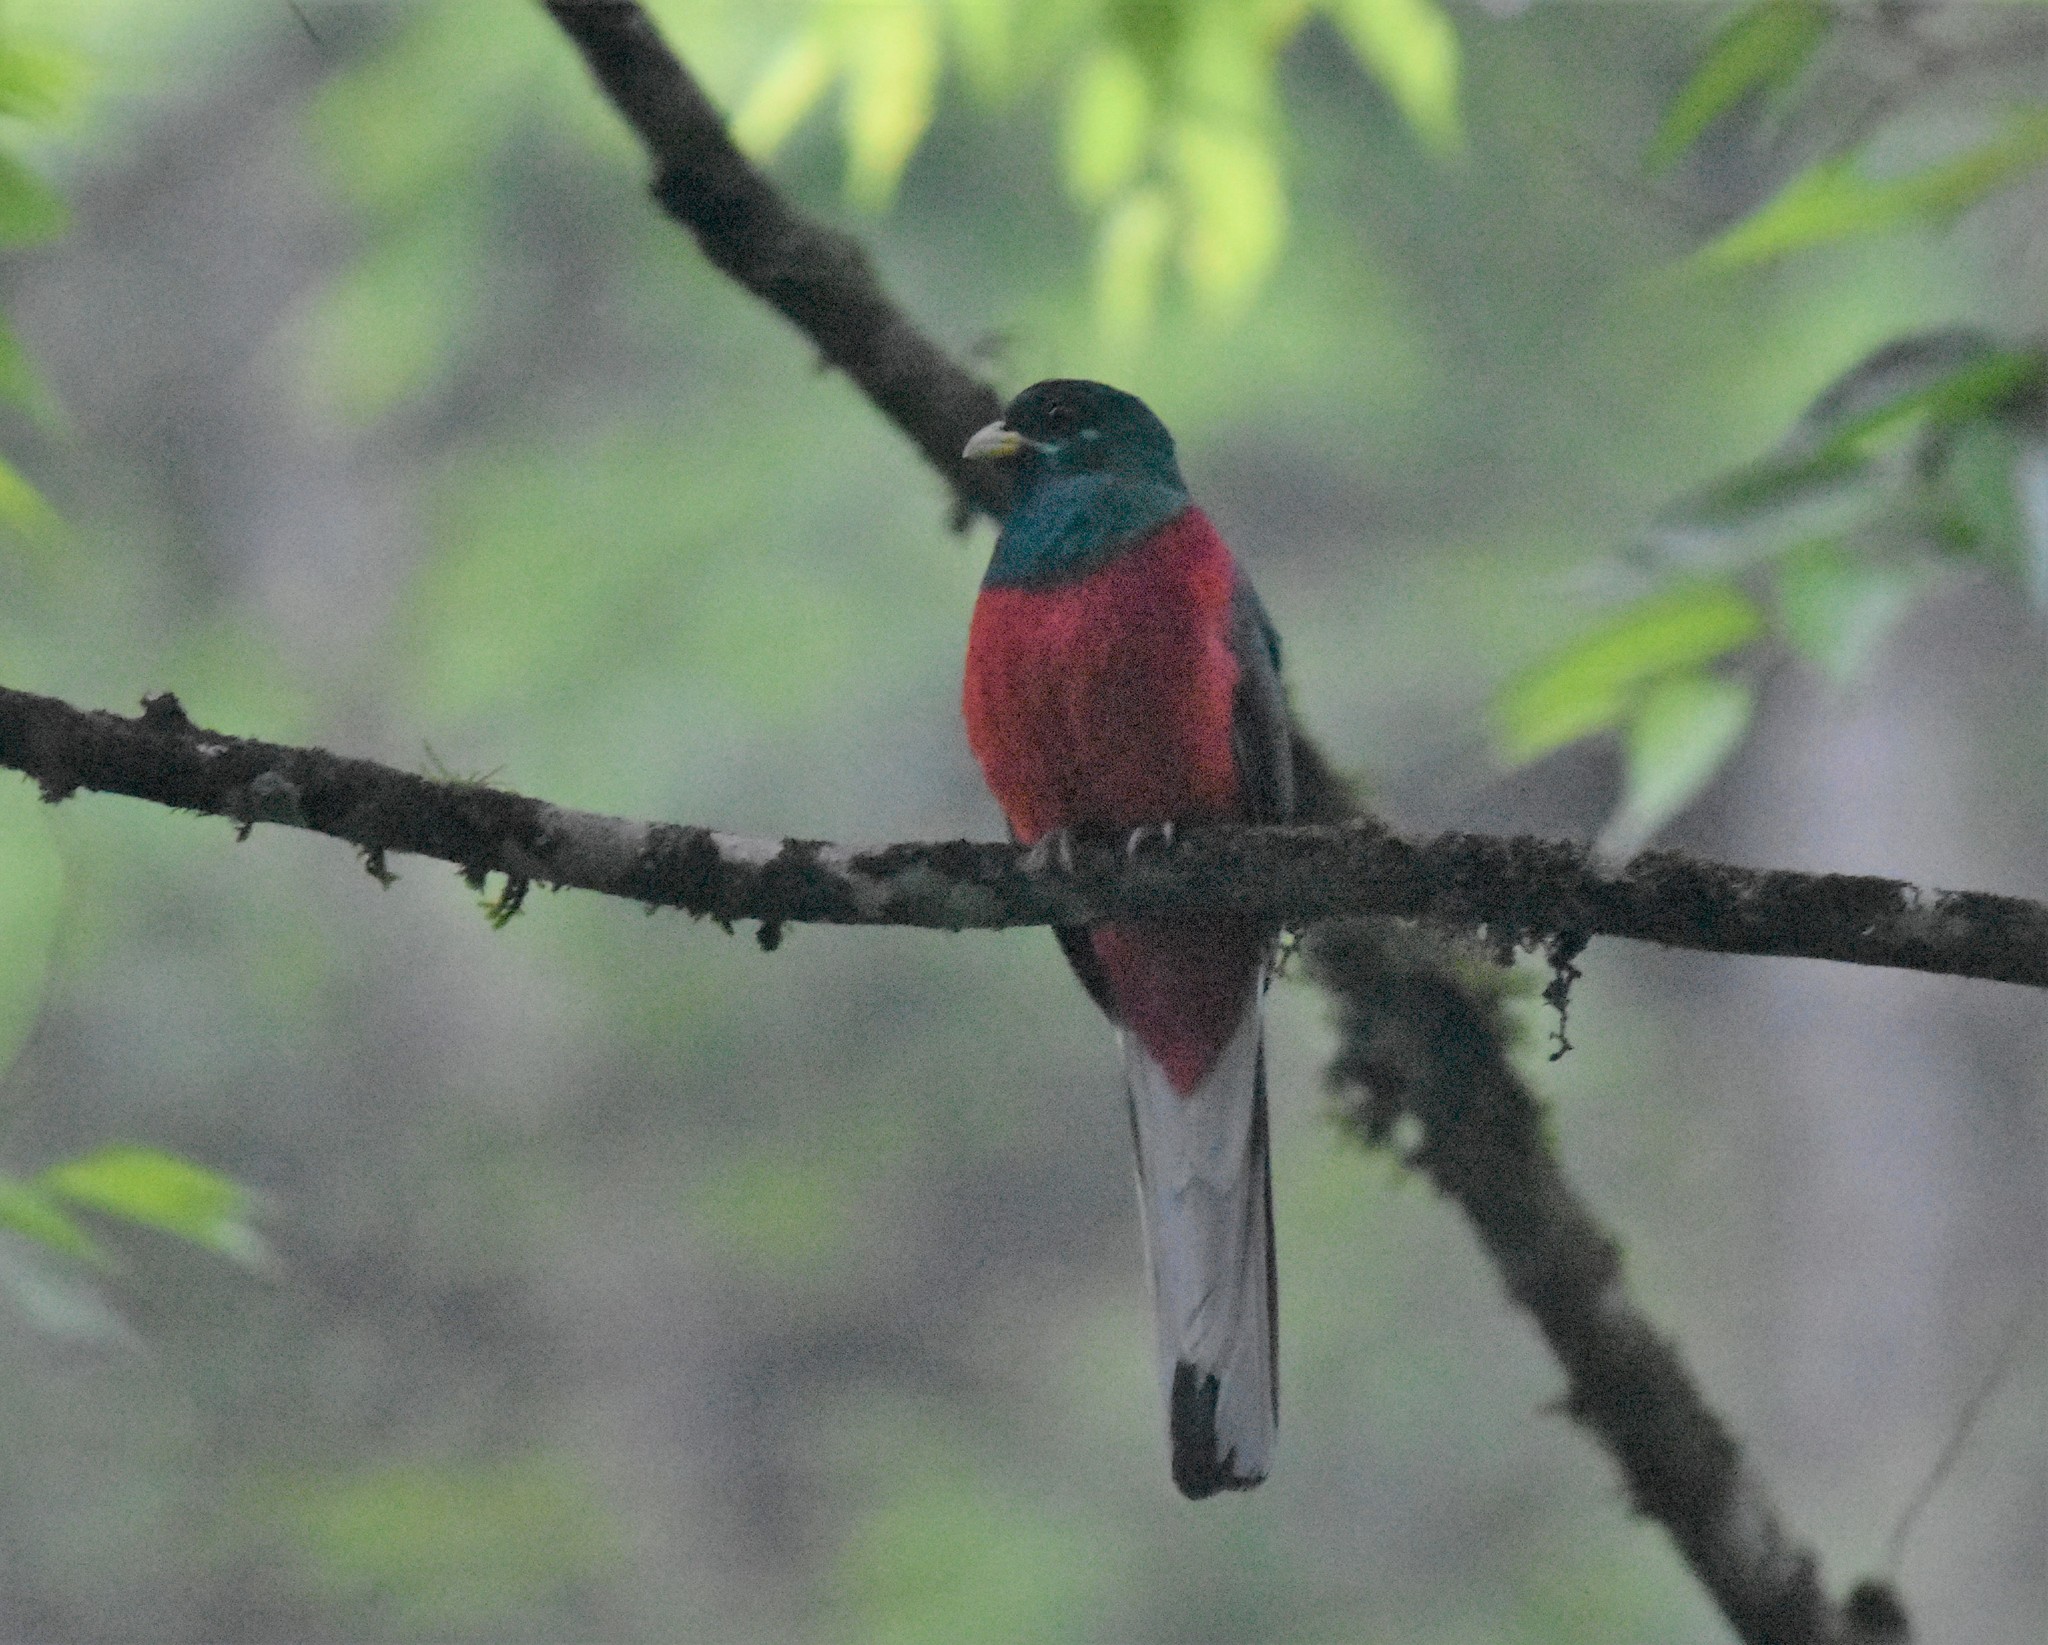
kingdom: Animalia
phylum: Chordata
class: Aves
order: Trogoniformes
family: Trogonidae
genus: Apaloderma
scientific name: Apaloderma narina
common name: Narina trogon
